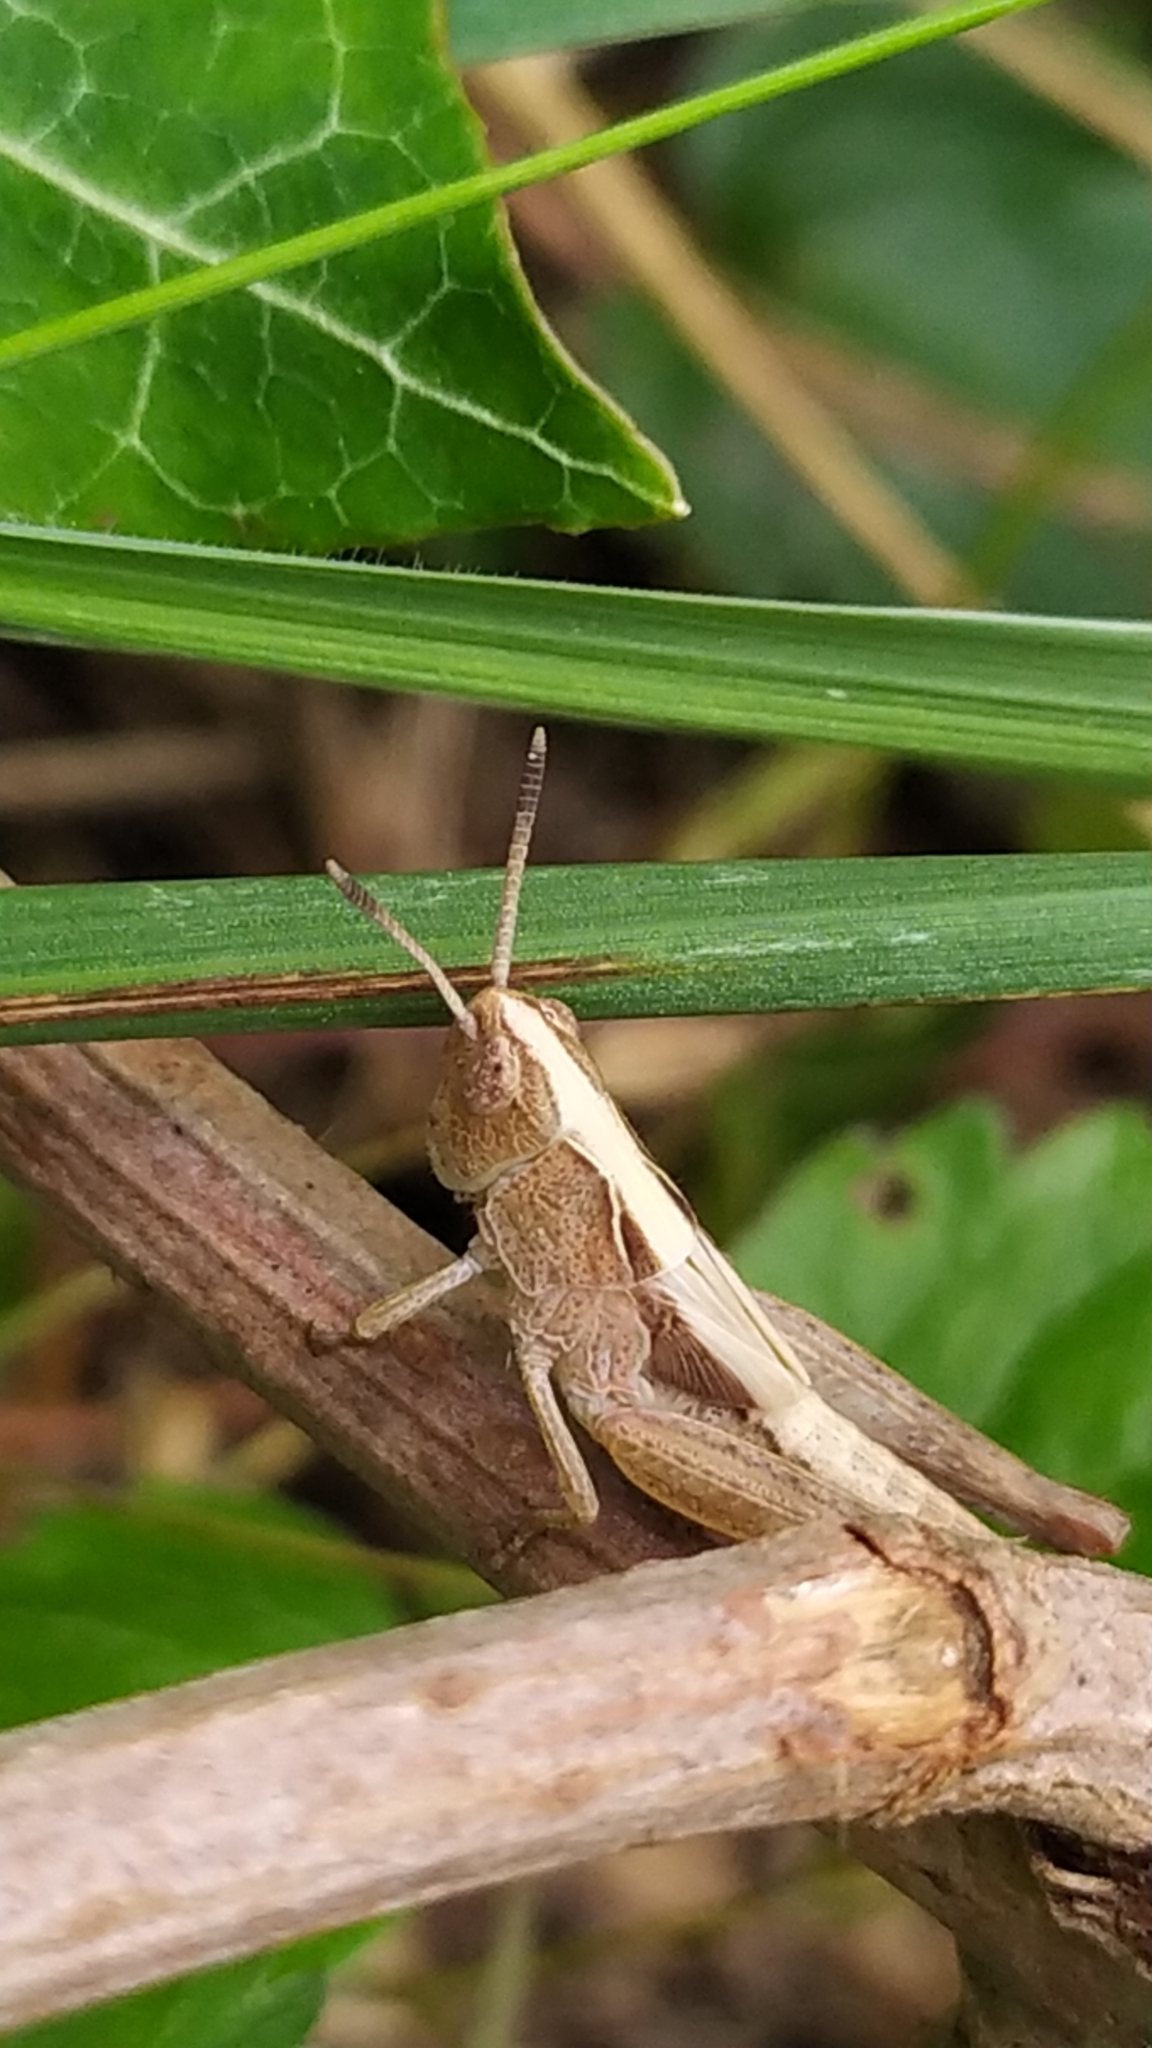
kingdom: Animalia
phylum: Arthropoda
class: Insecta
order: Orthoptera
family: Acrididae
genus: Gomphocerippus
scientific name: Gomphocerippus rufus
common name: Rufous grasshopper
